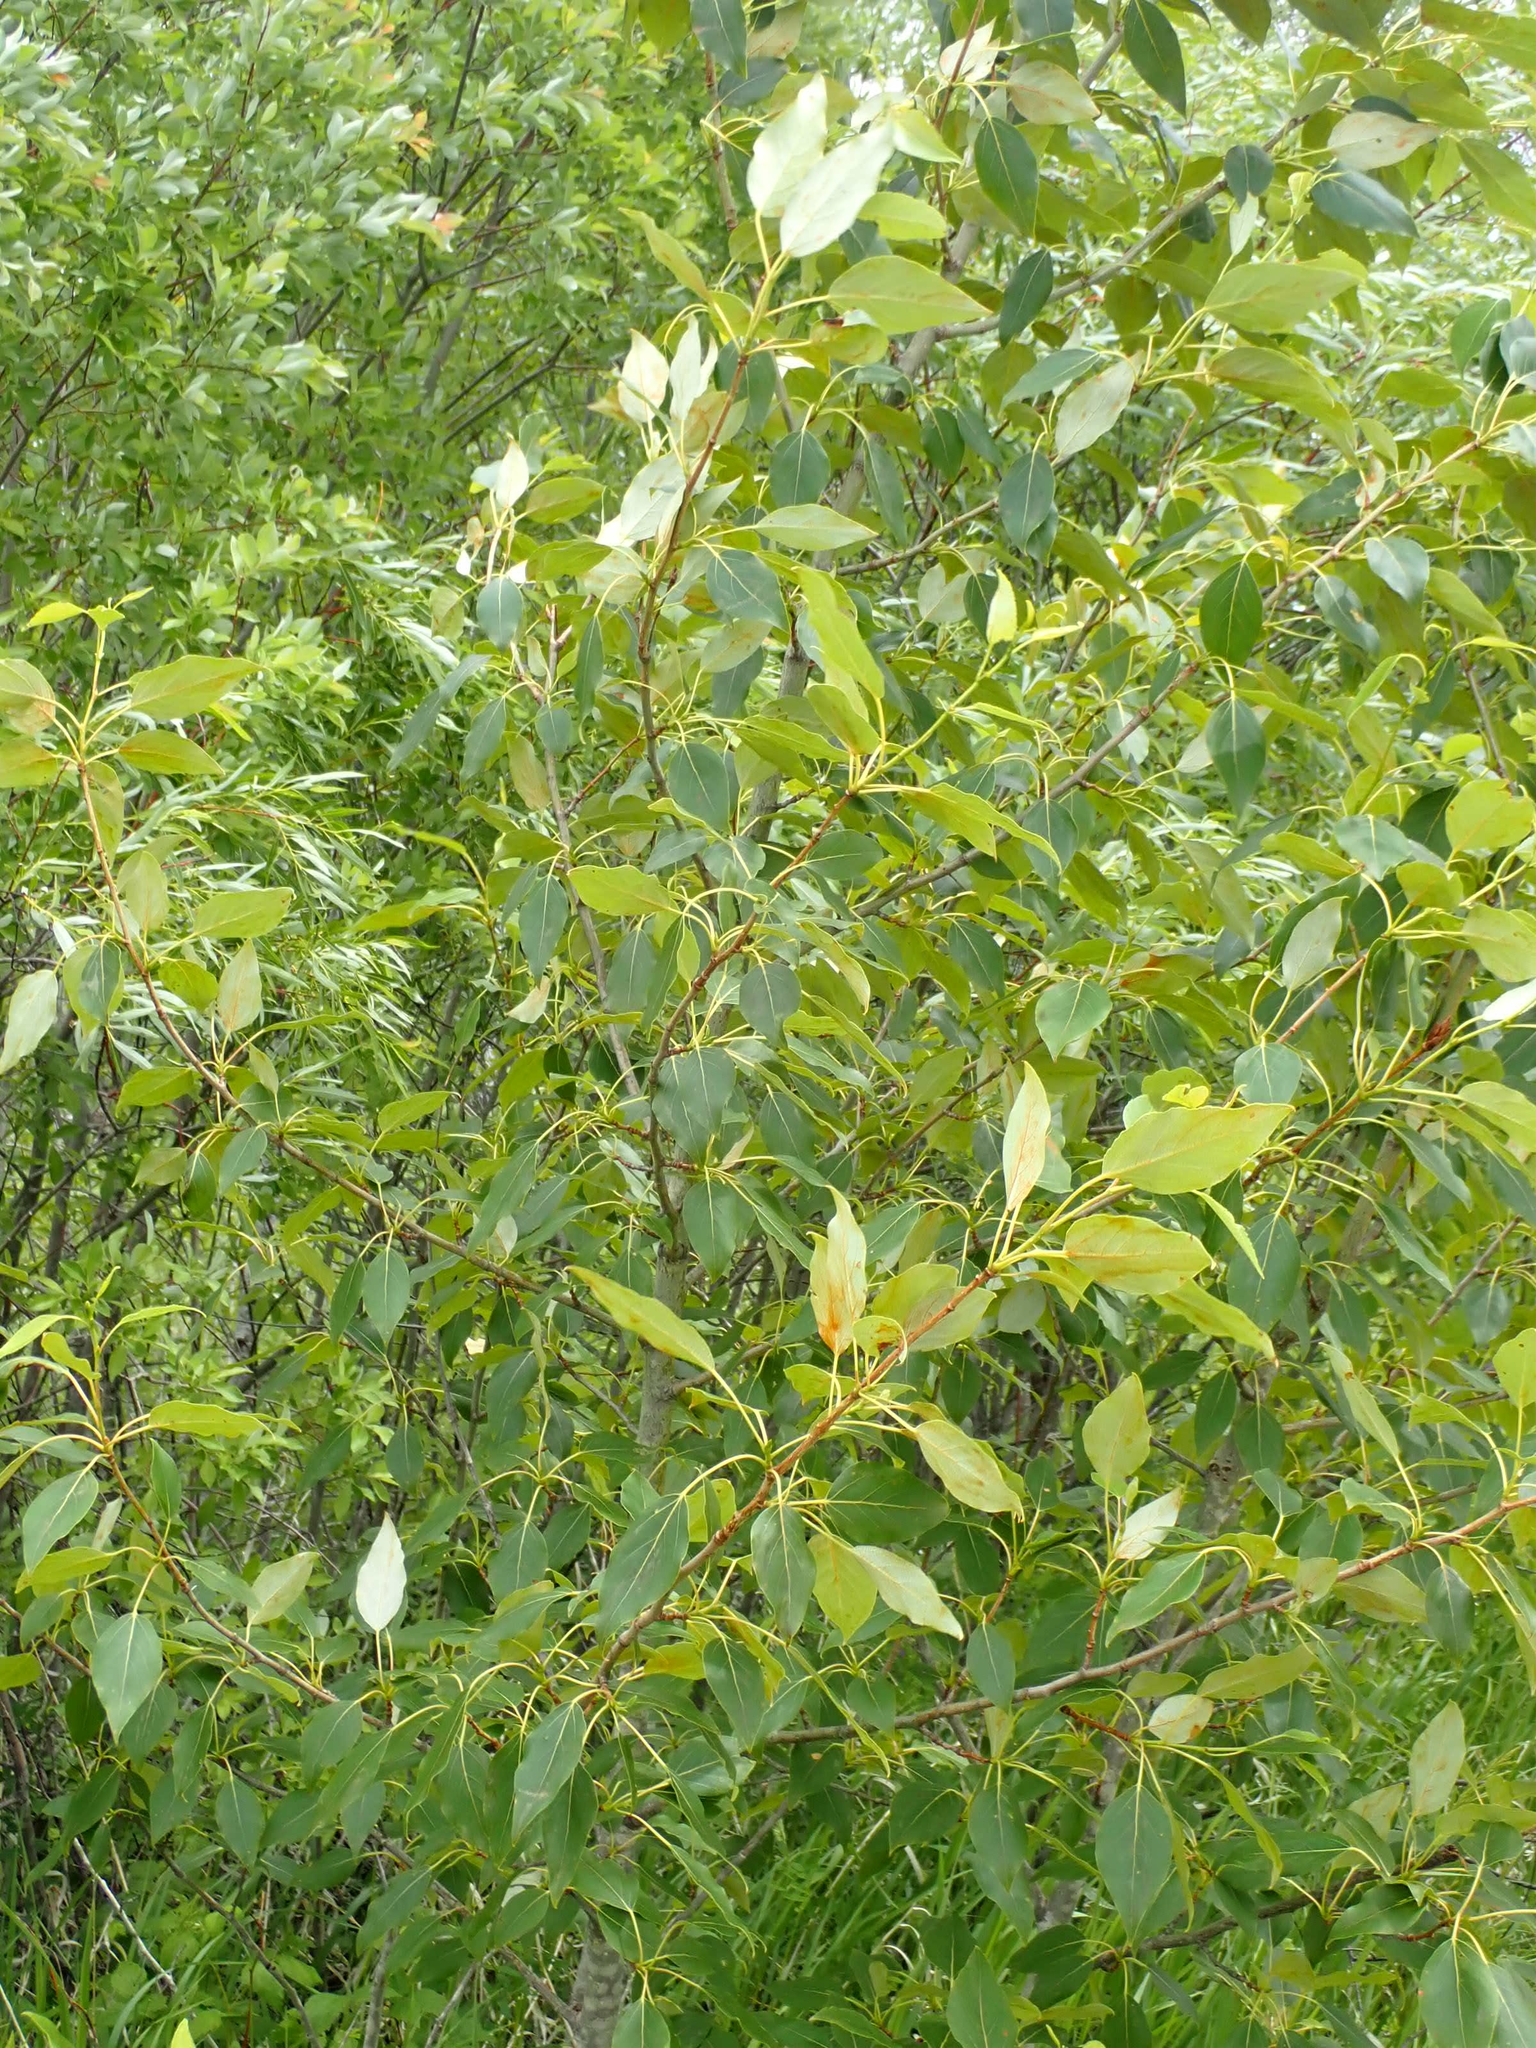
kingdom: Plantae
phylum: Tracheophyta
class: Magnoliopsida
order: Malpighiales
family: Salicaceae
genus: Populus
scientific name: Populus balsamifera
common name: Balsam poplar
